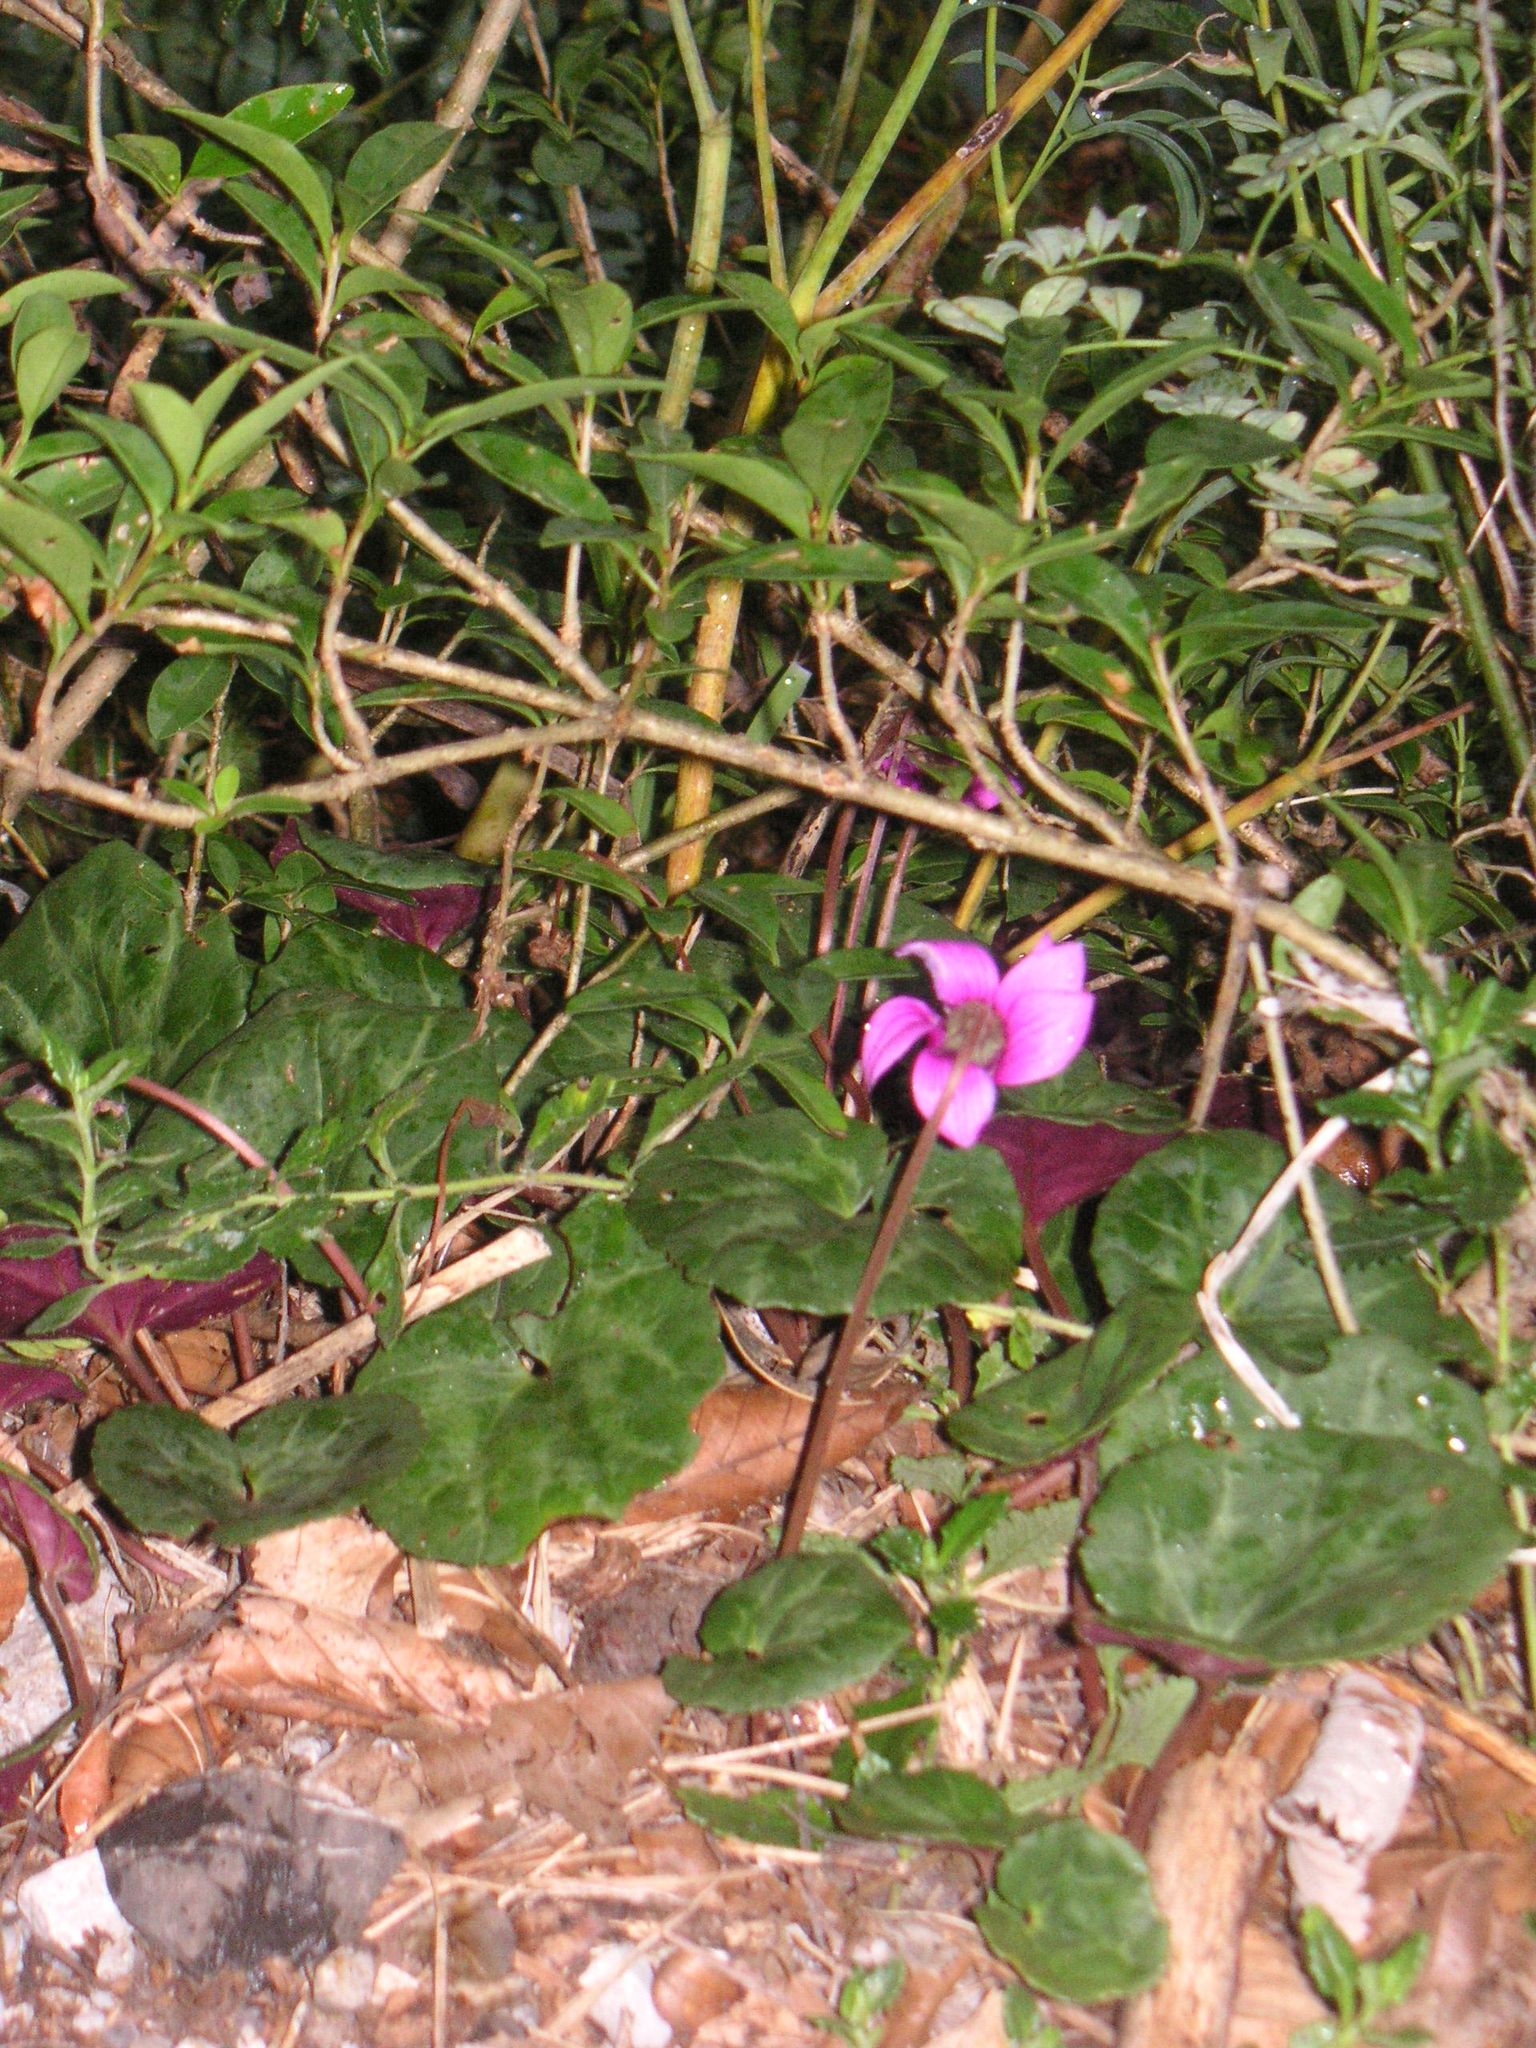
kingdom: Plantae
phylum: Tracheophyta
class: Magnoliopsida
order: Ericales
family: Primulaceae
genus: Cyclamen
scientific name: Cyclamen purpurascens
